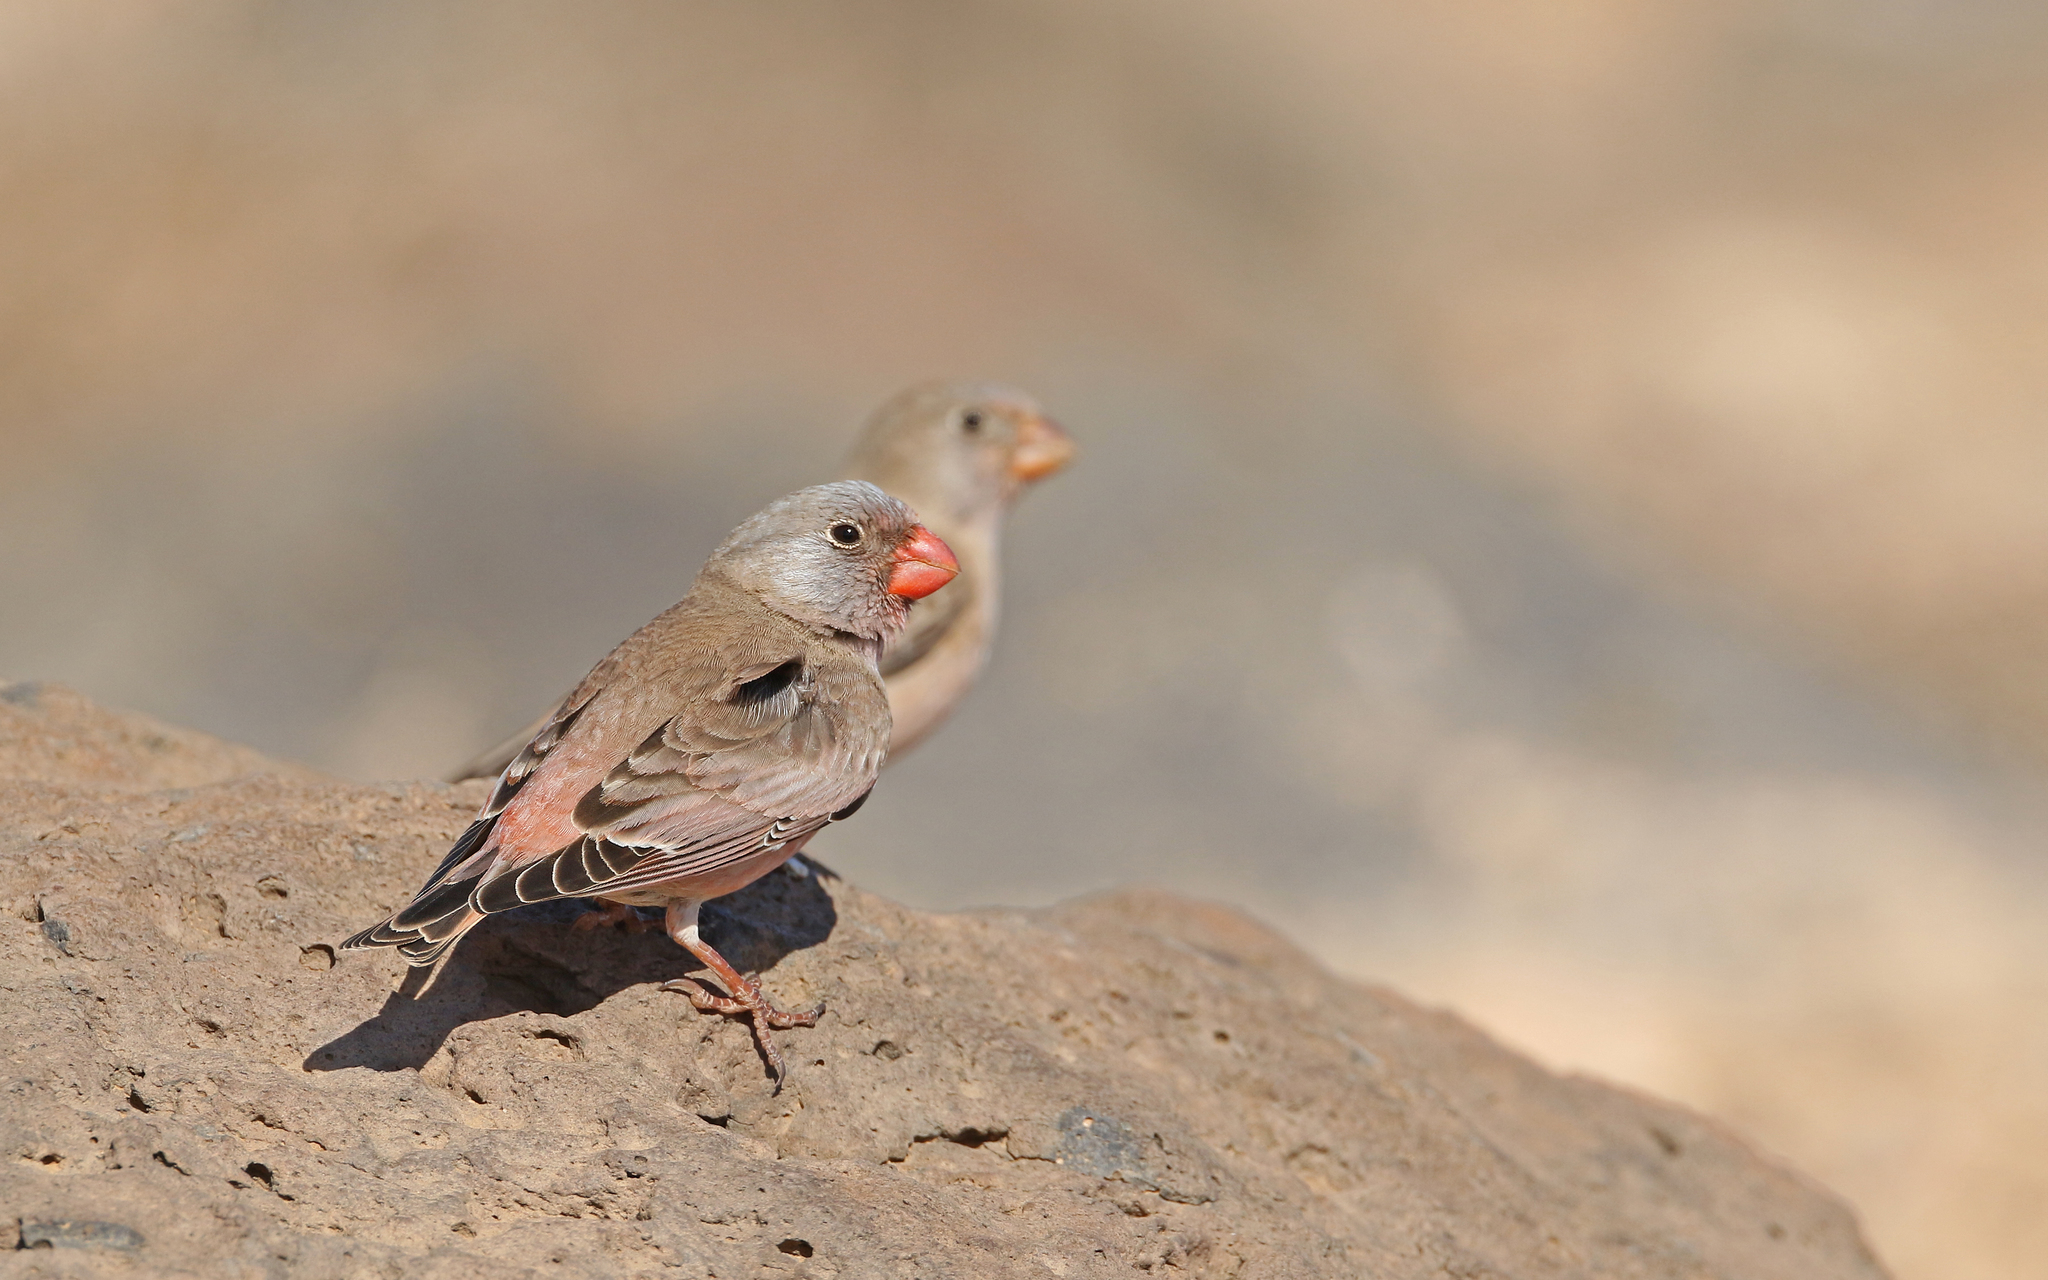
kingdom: Animalia
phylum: Chordata
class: Aves
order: Passeriformes
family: Fringillidae
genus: Bucanetes
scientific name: Bucanetes githagineus
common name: Trumpeter finch
